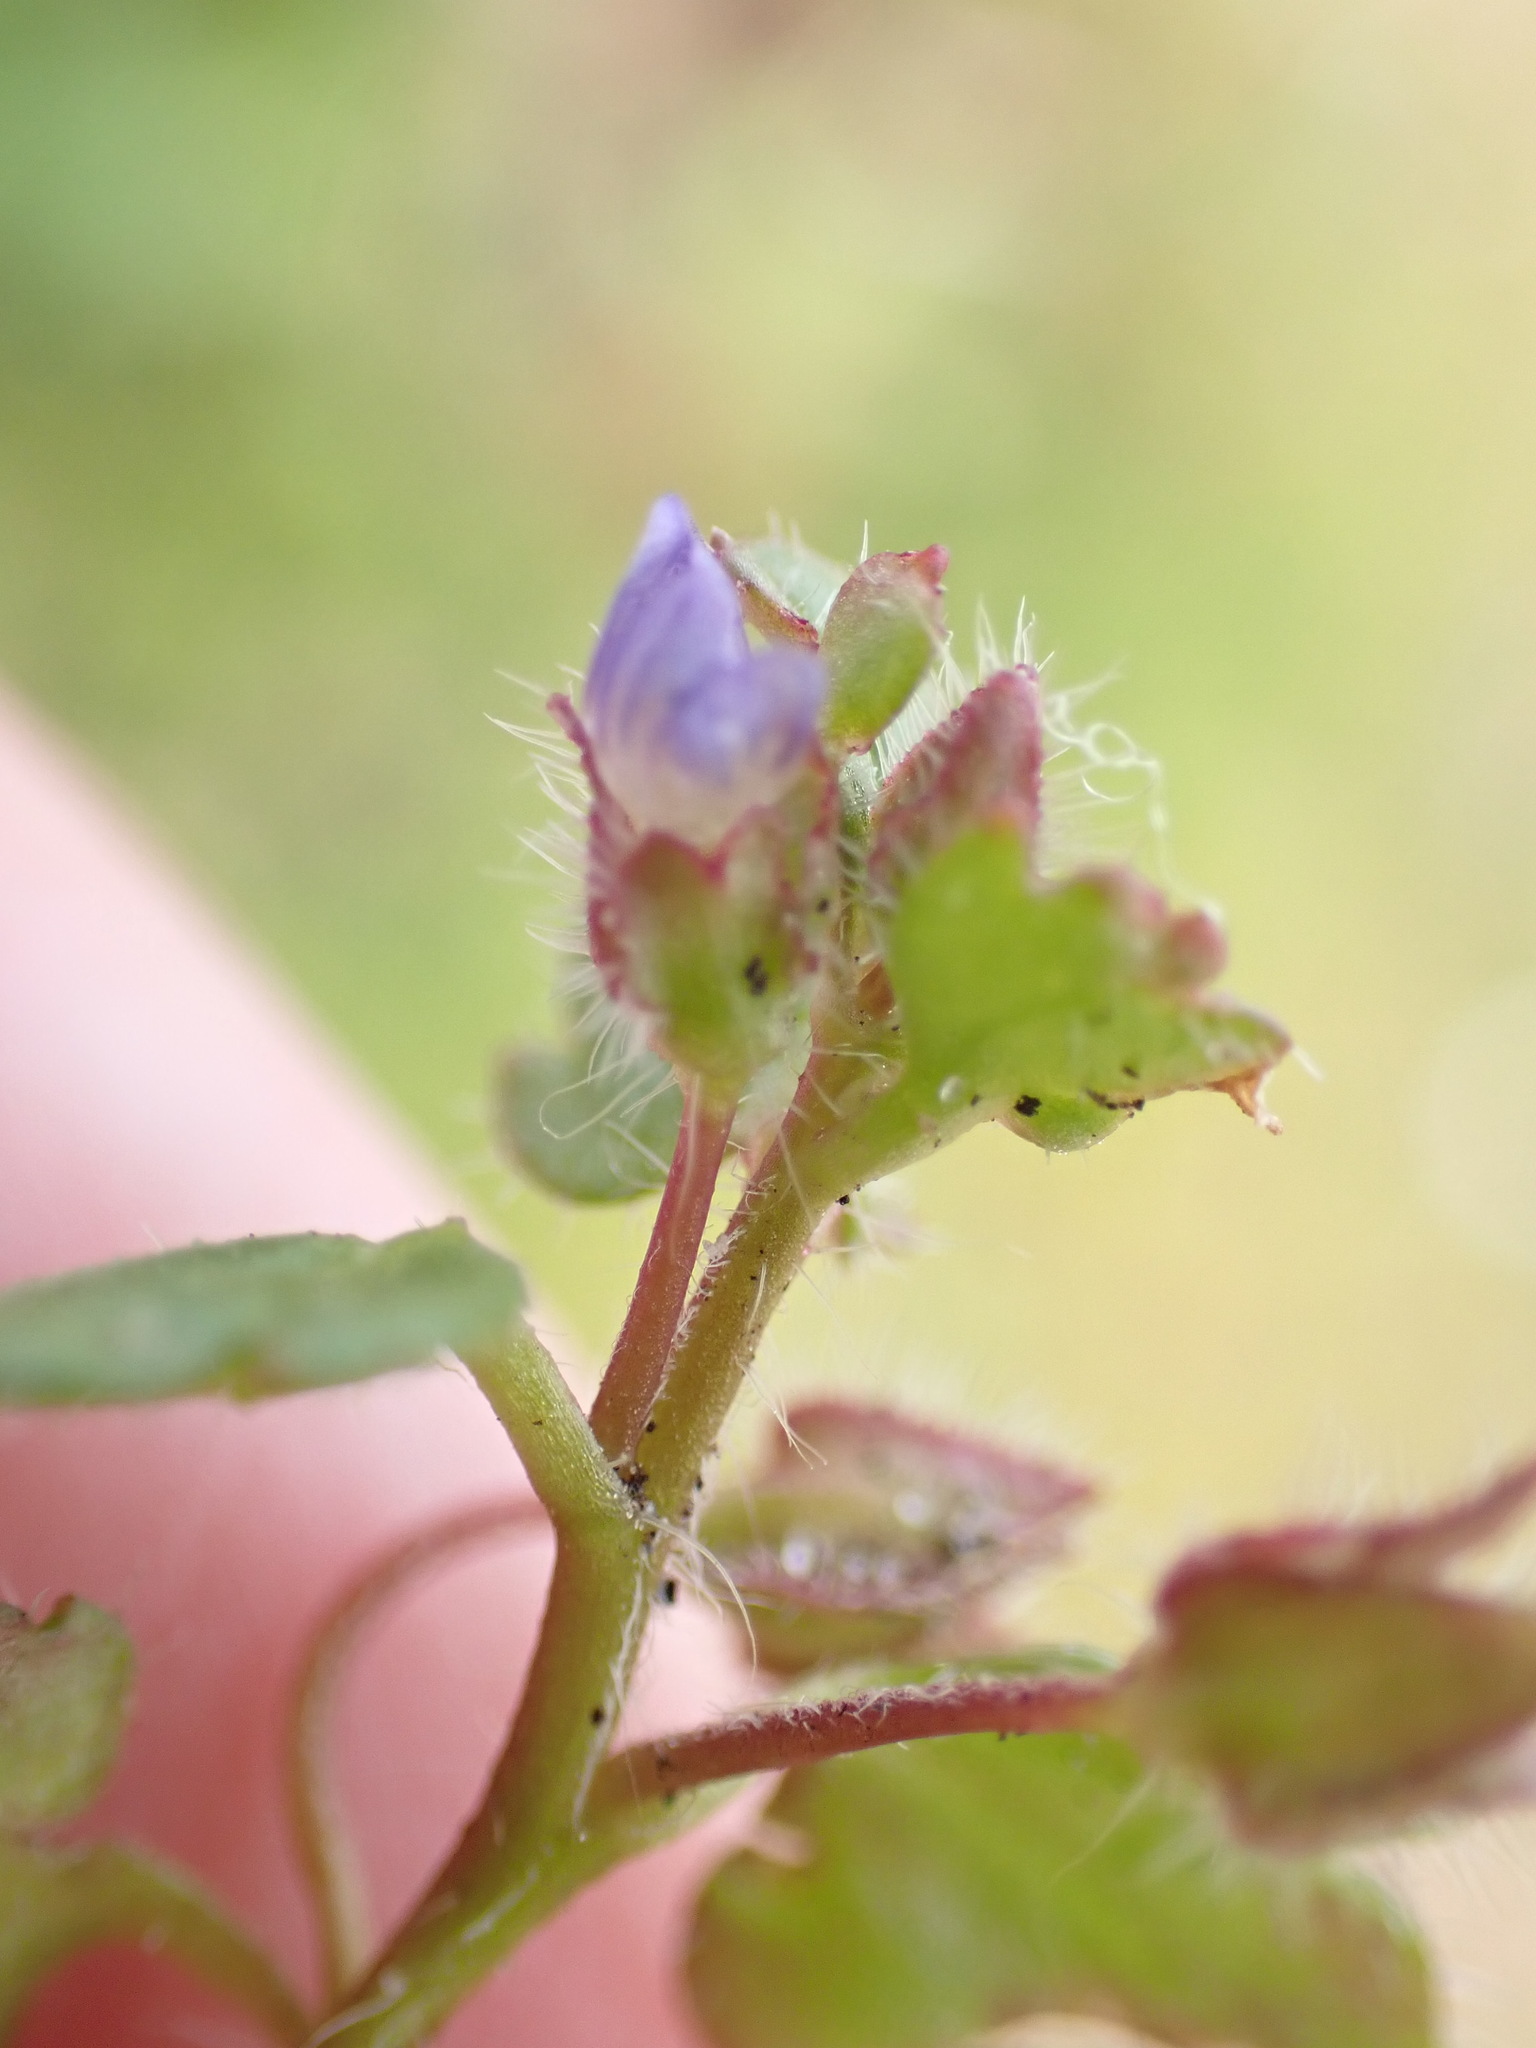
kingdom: Plantae
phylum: Tracheophyta
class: Magnoliopsida
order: Lamiales
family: Plantaginaceae
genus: Veronica
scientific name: Veronica hederifolia
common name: Ivy-leaved speedwell
